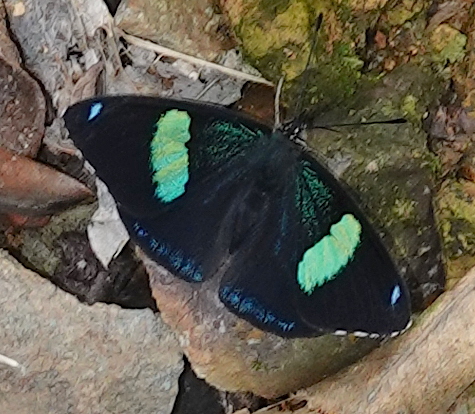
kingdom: Animalia
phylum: Arthropoda
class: Insecta
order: Lepidoptera
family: Nymphalidae
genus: Perisama
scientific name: Perisama oppelii
